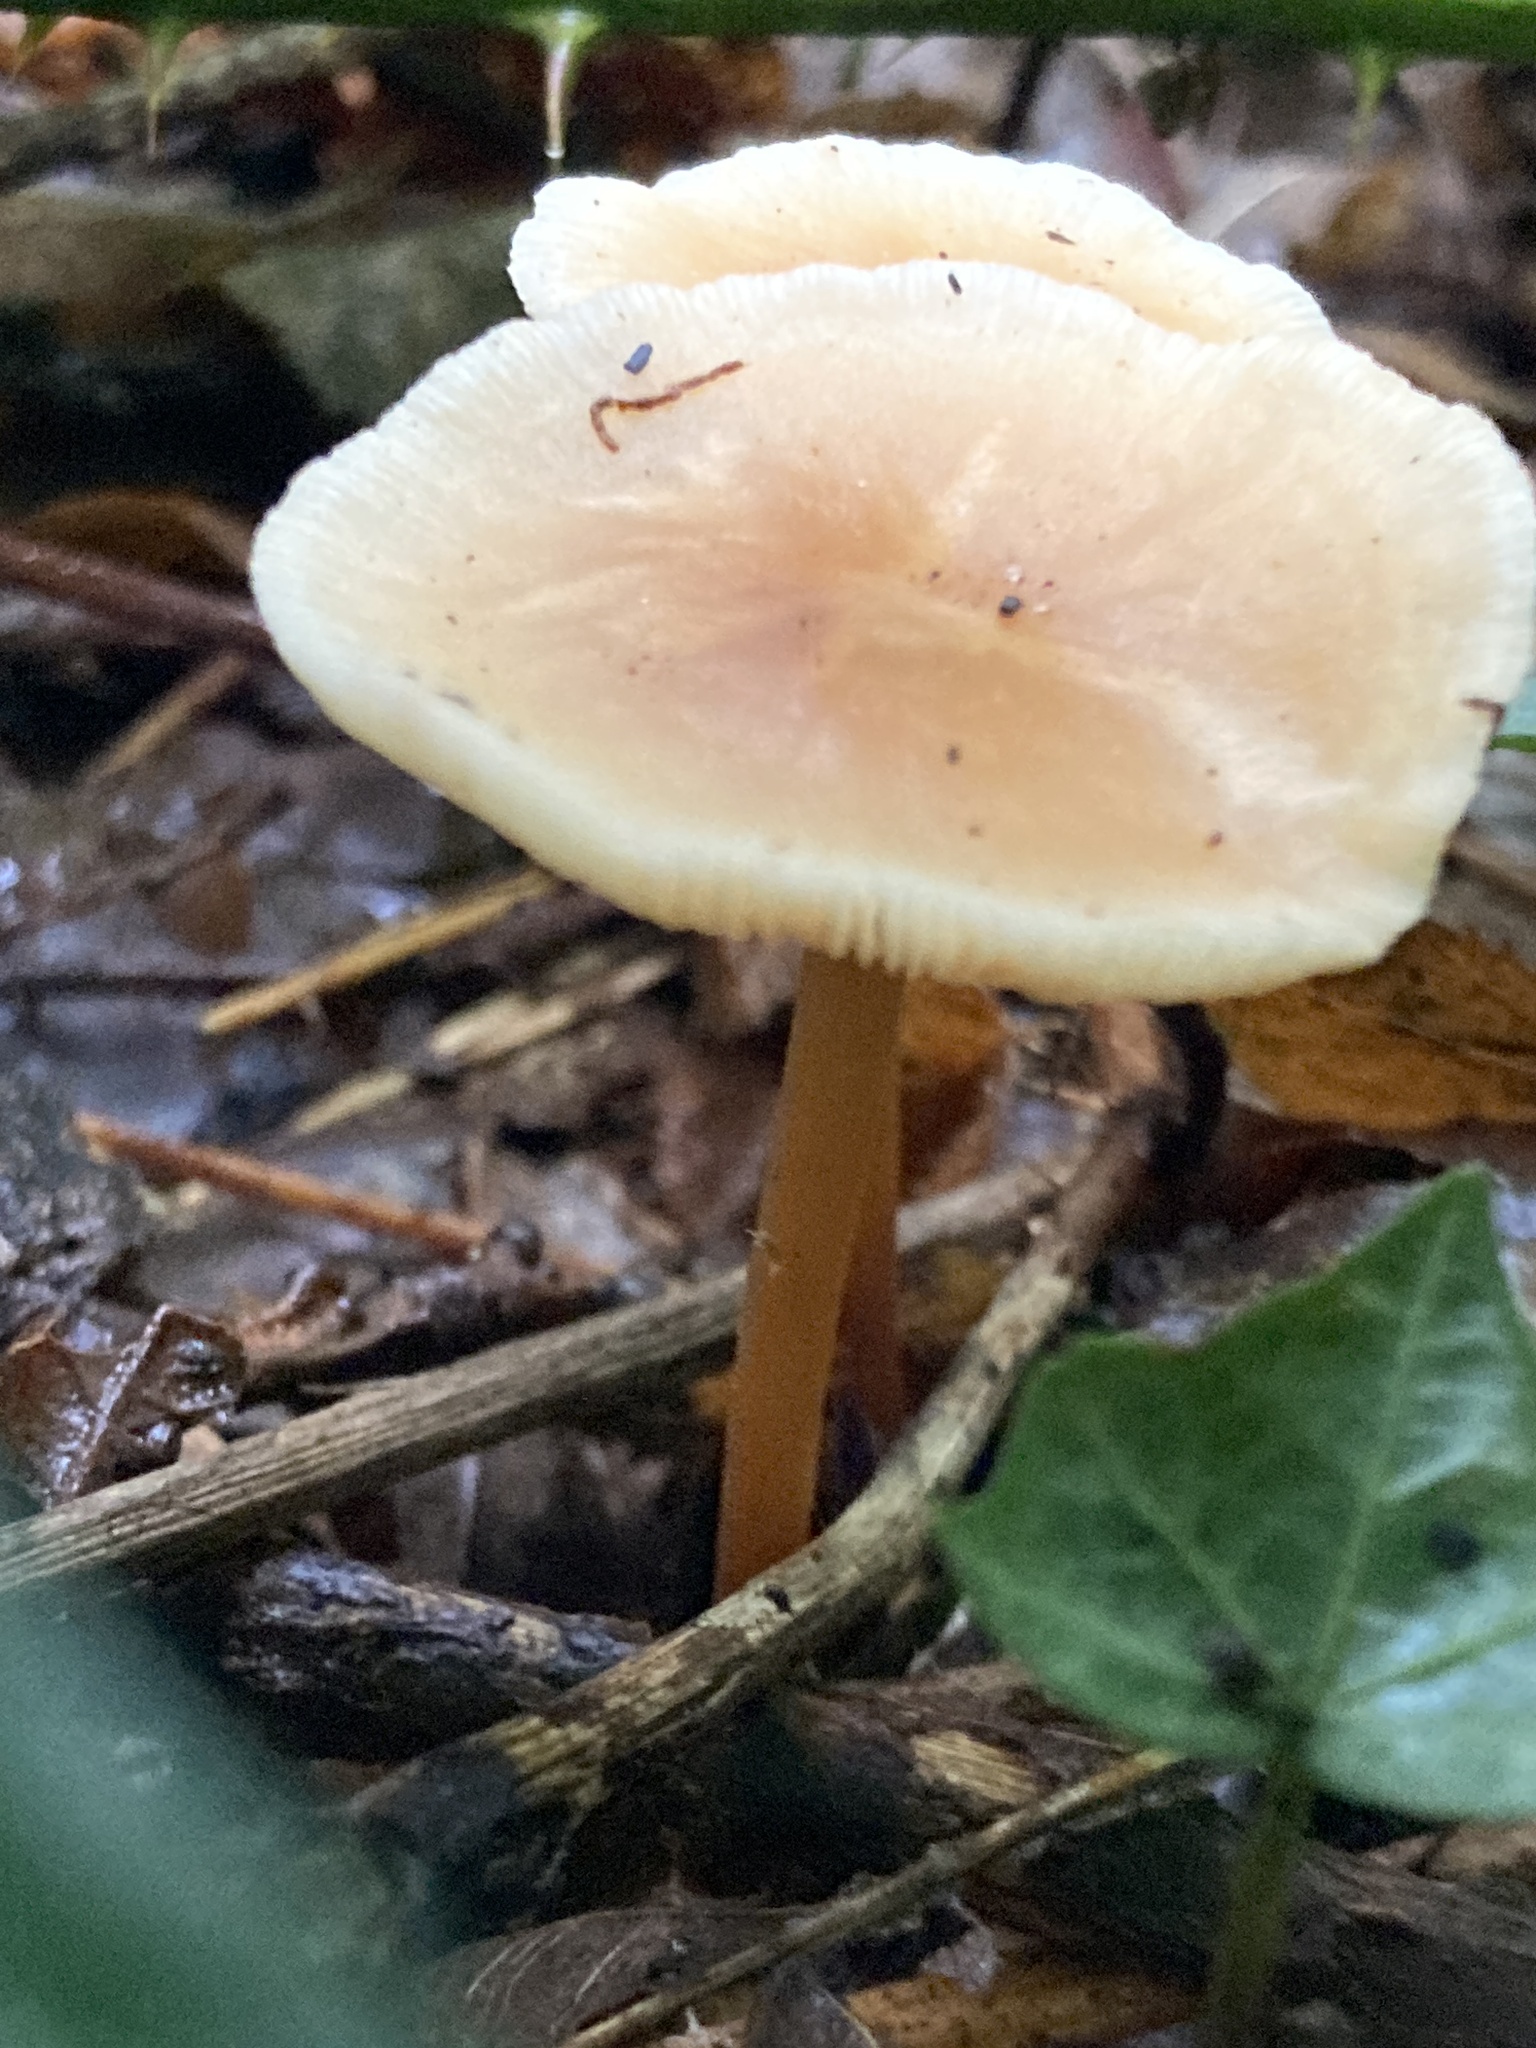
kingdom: Fungi
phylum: Basidiomycota
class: Agaricomycetes
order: Agaricales
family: Omphalotaceae
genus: Rhodocollybia
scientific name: Rhodocollybia butyracea
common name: Butter cap
